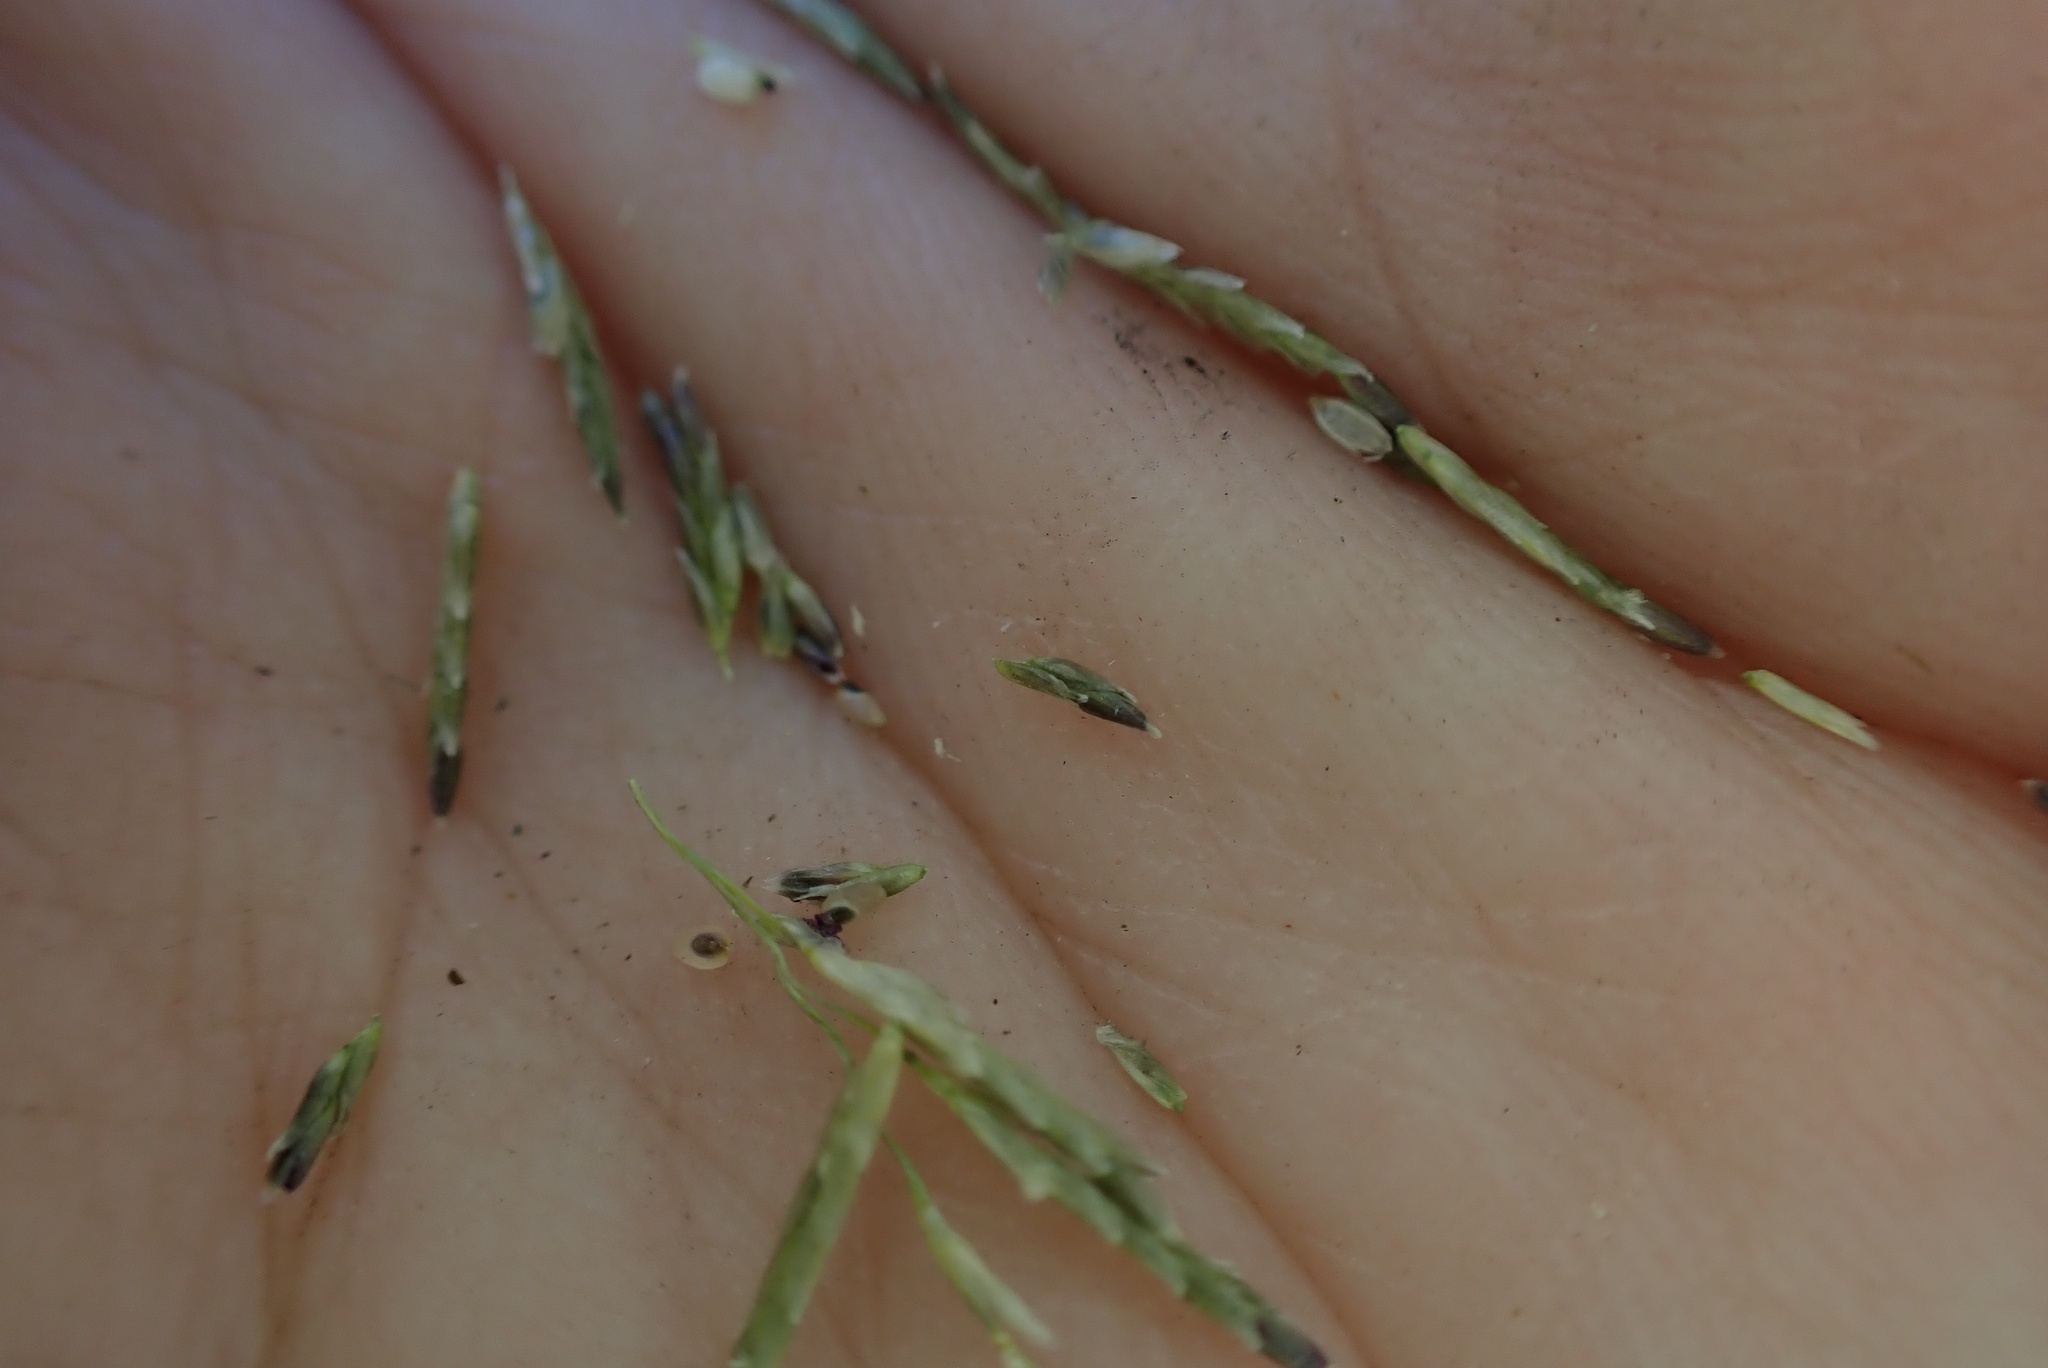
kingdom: Plantae
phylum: Tracheophyta
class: Liliopsida
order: Poales
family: Poaceae
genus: Eragrostis
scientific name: Eragrostis curvula
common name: African love-grass
